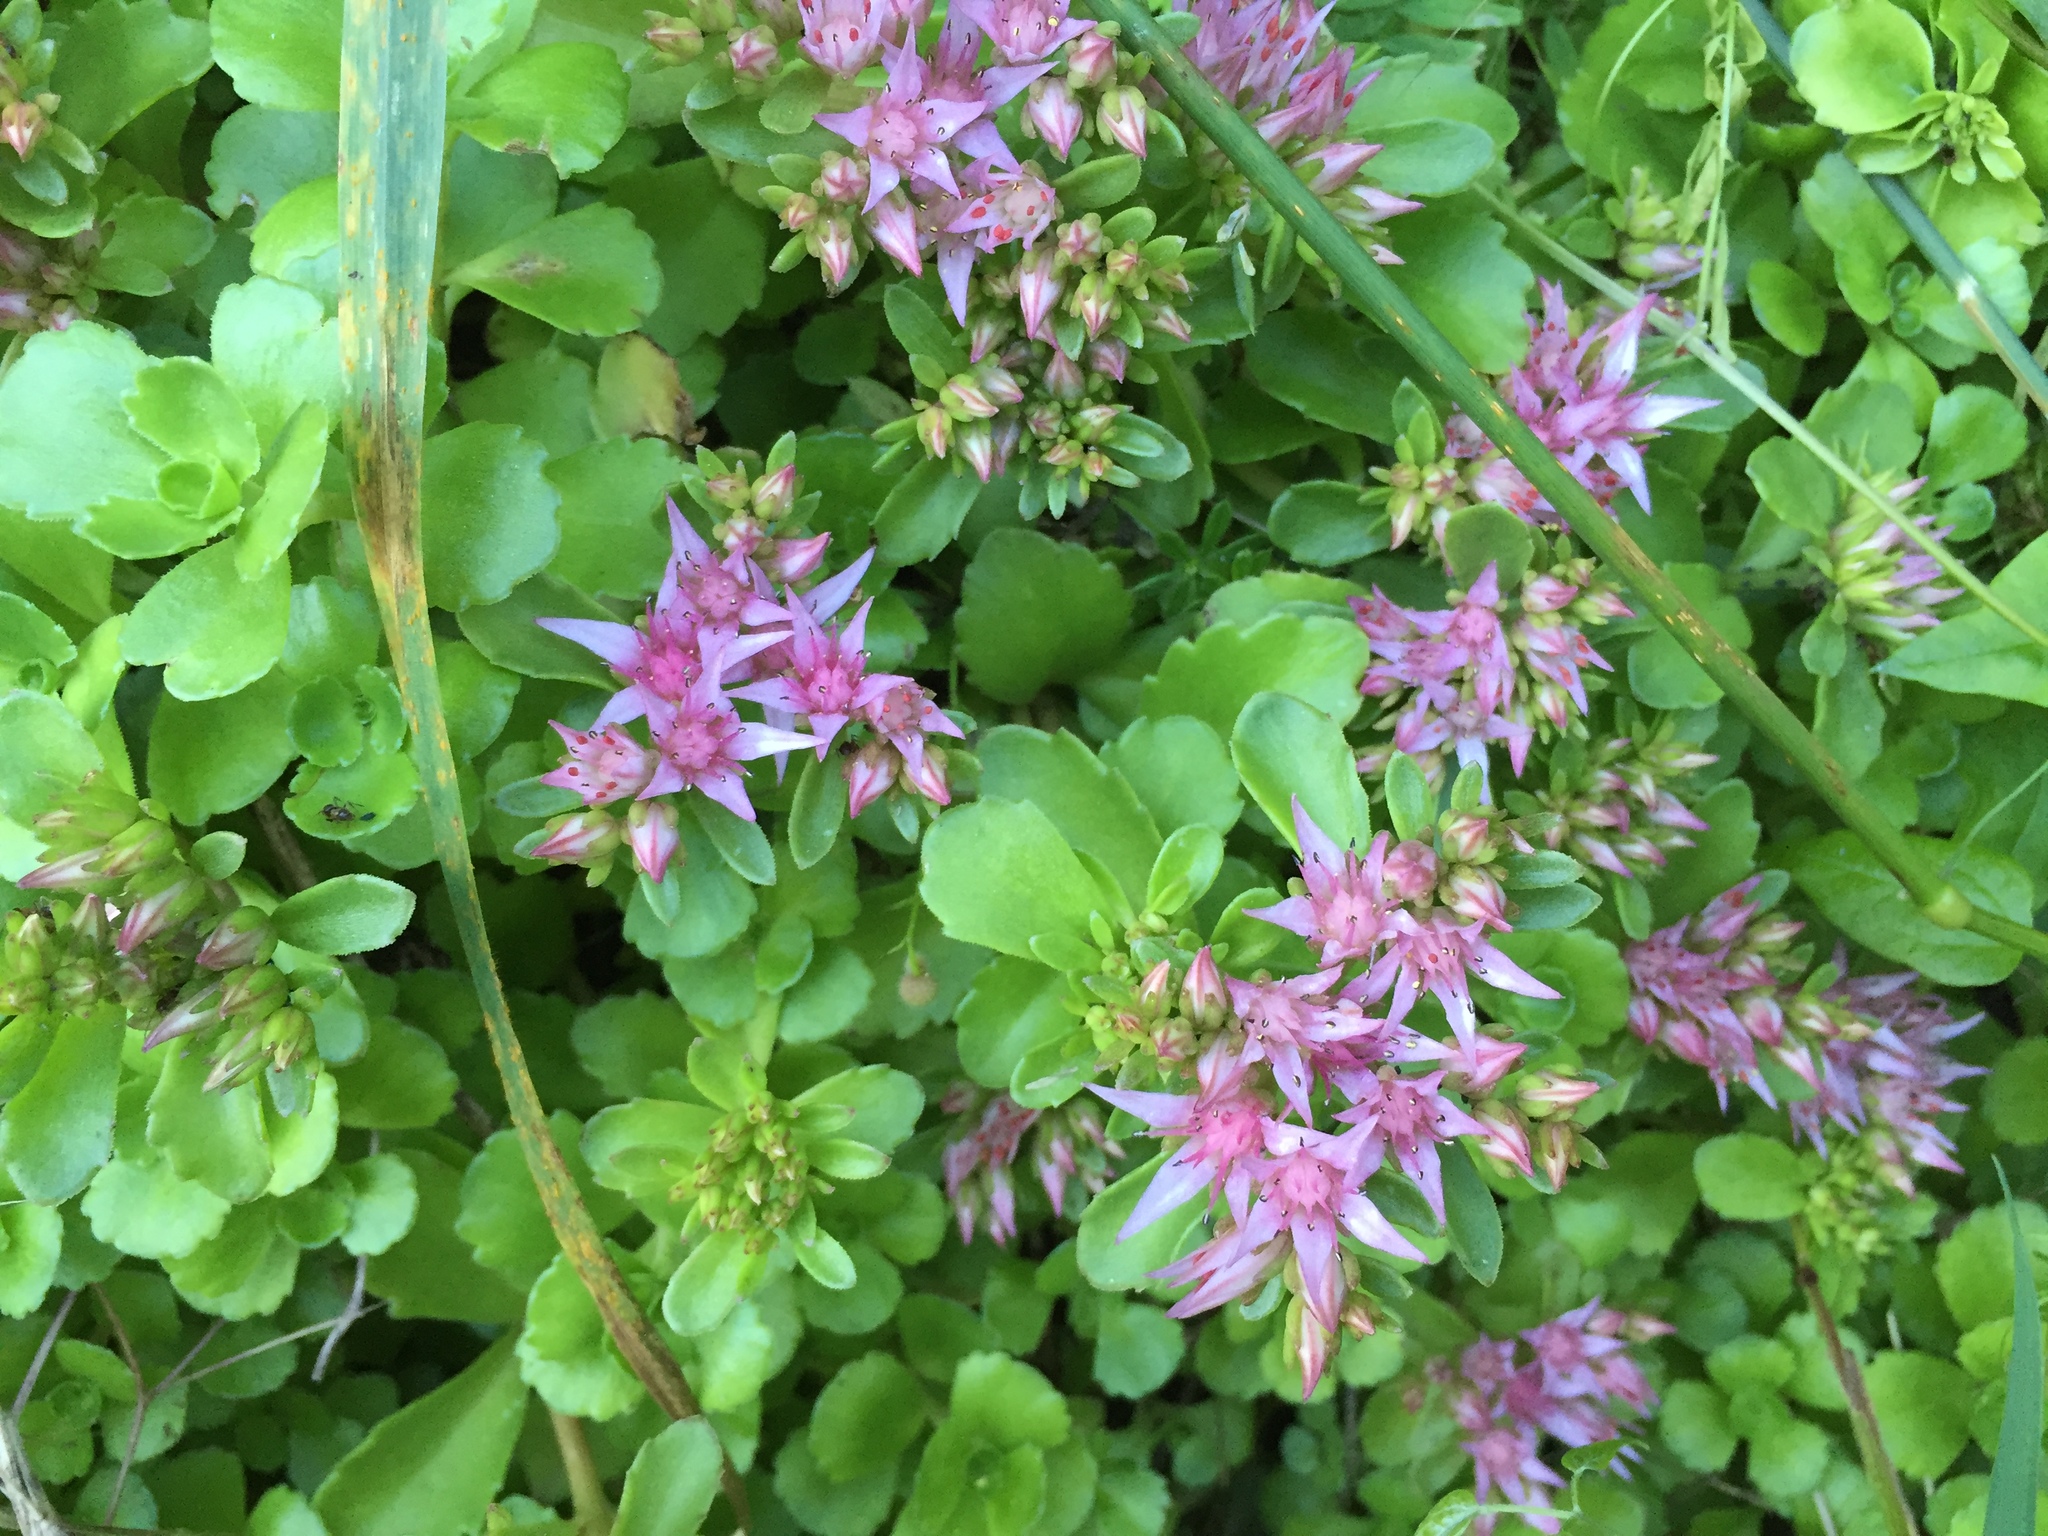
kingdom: Plantae
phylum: Tracheophyta
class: Magnoliopsida
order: Saxifragales
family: Crassulaceae
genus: Phedimus
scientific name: Phedimus spurius
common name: Caucasian stonecrop
